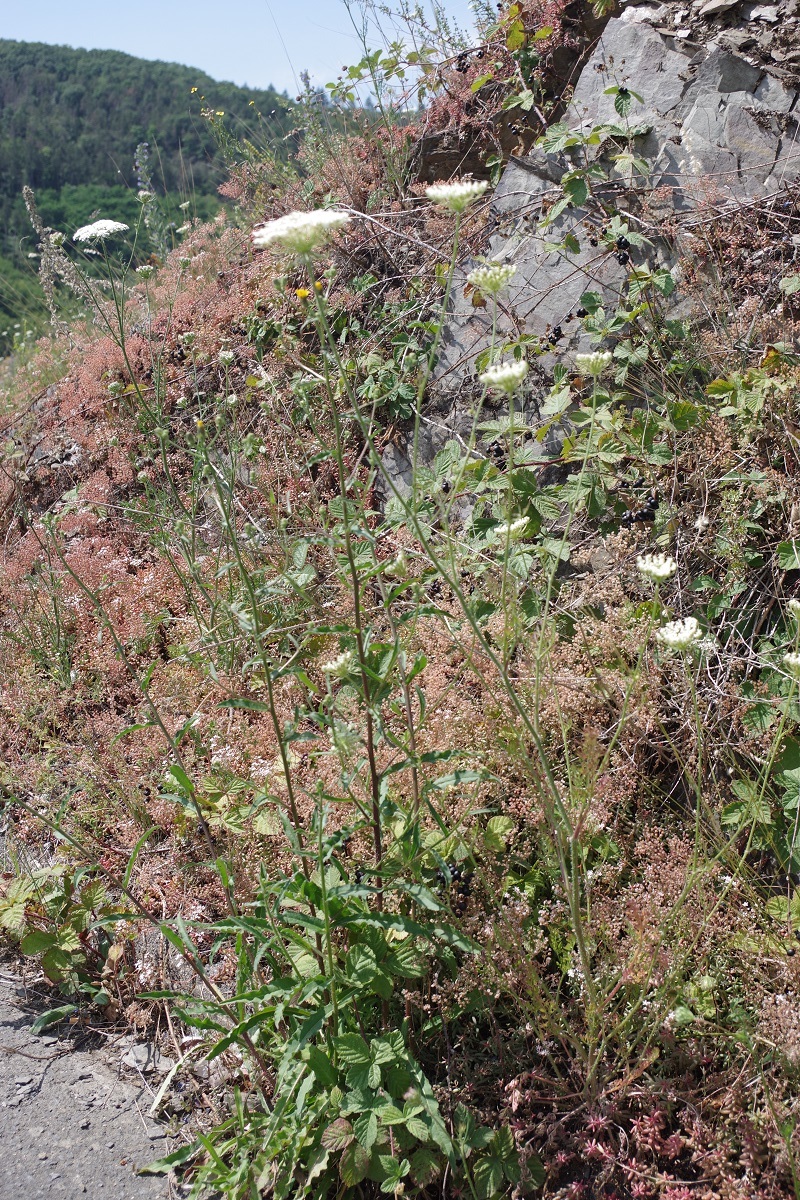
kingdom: Plantae
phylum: Tracheophyta
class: Magnoliopsida
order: Apiales
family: Apiaceae
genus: Daucus
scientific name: Daucus carota
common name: Wild carrot
